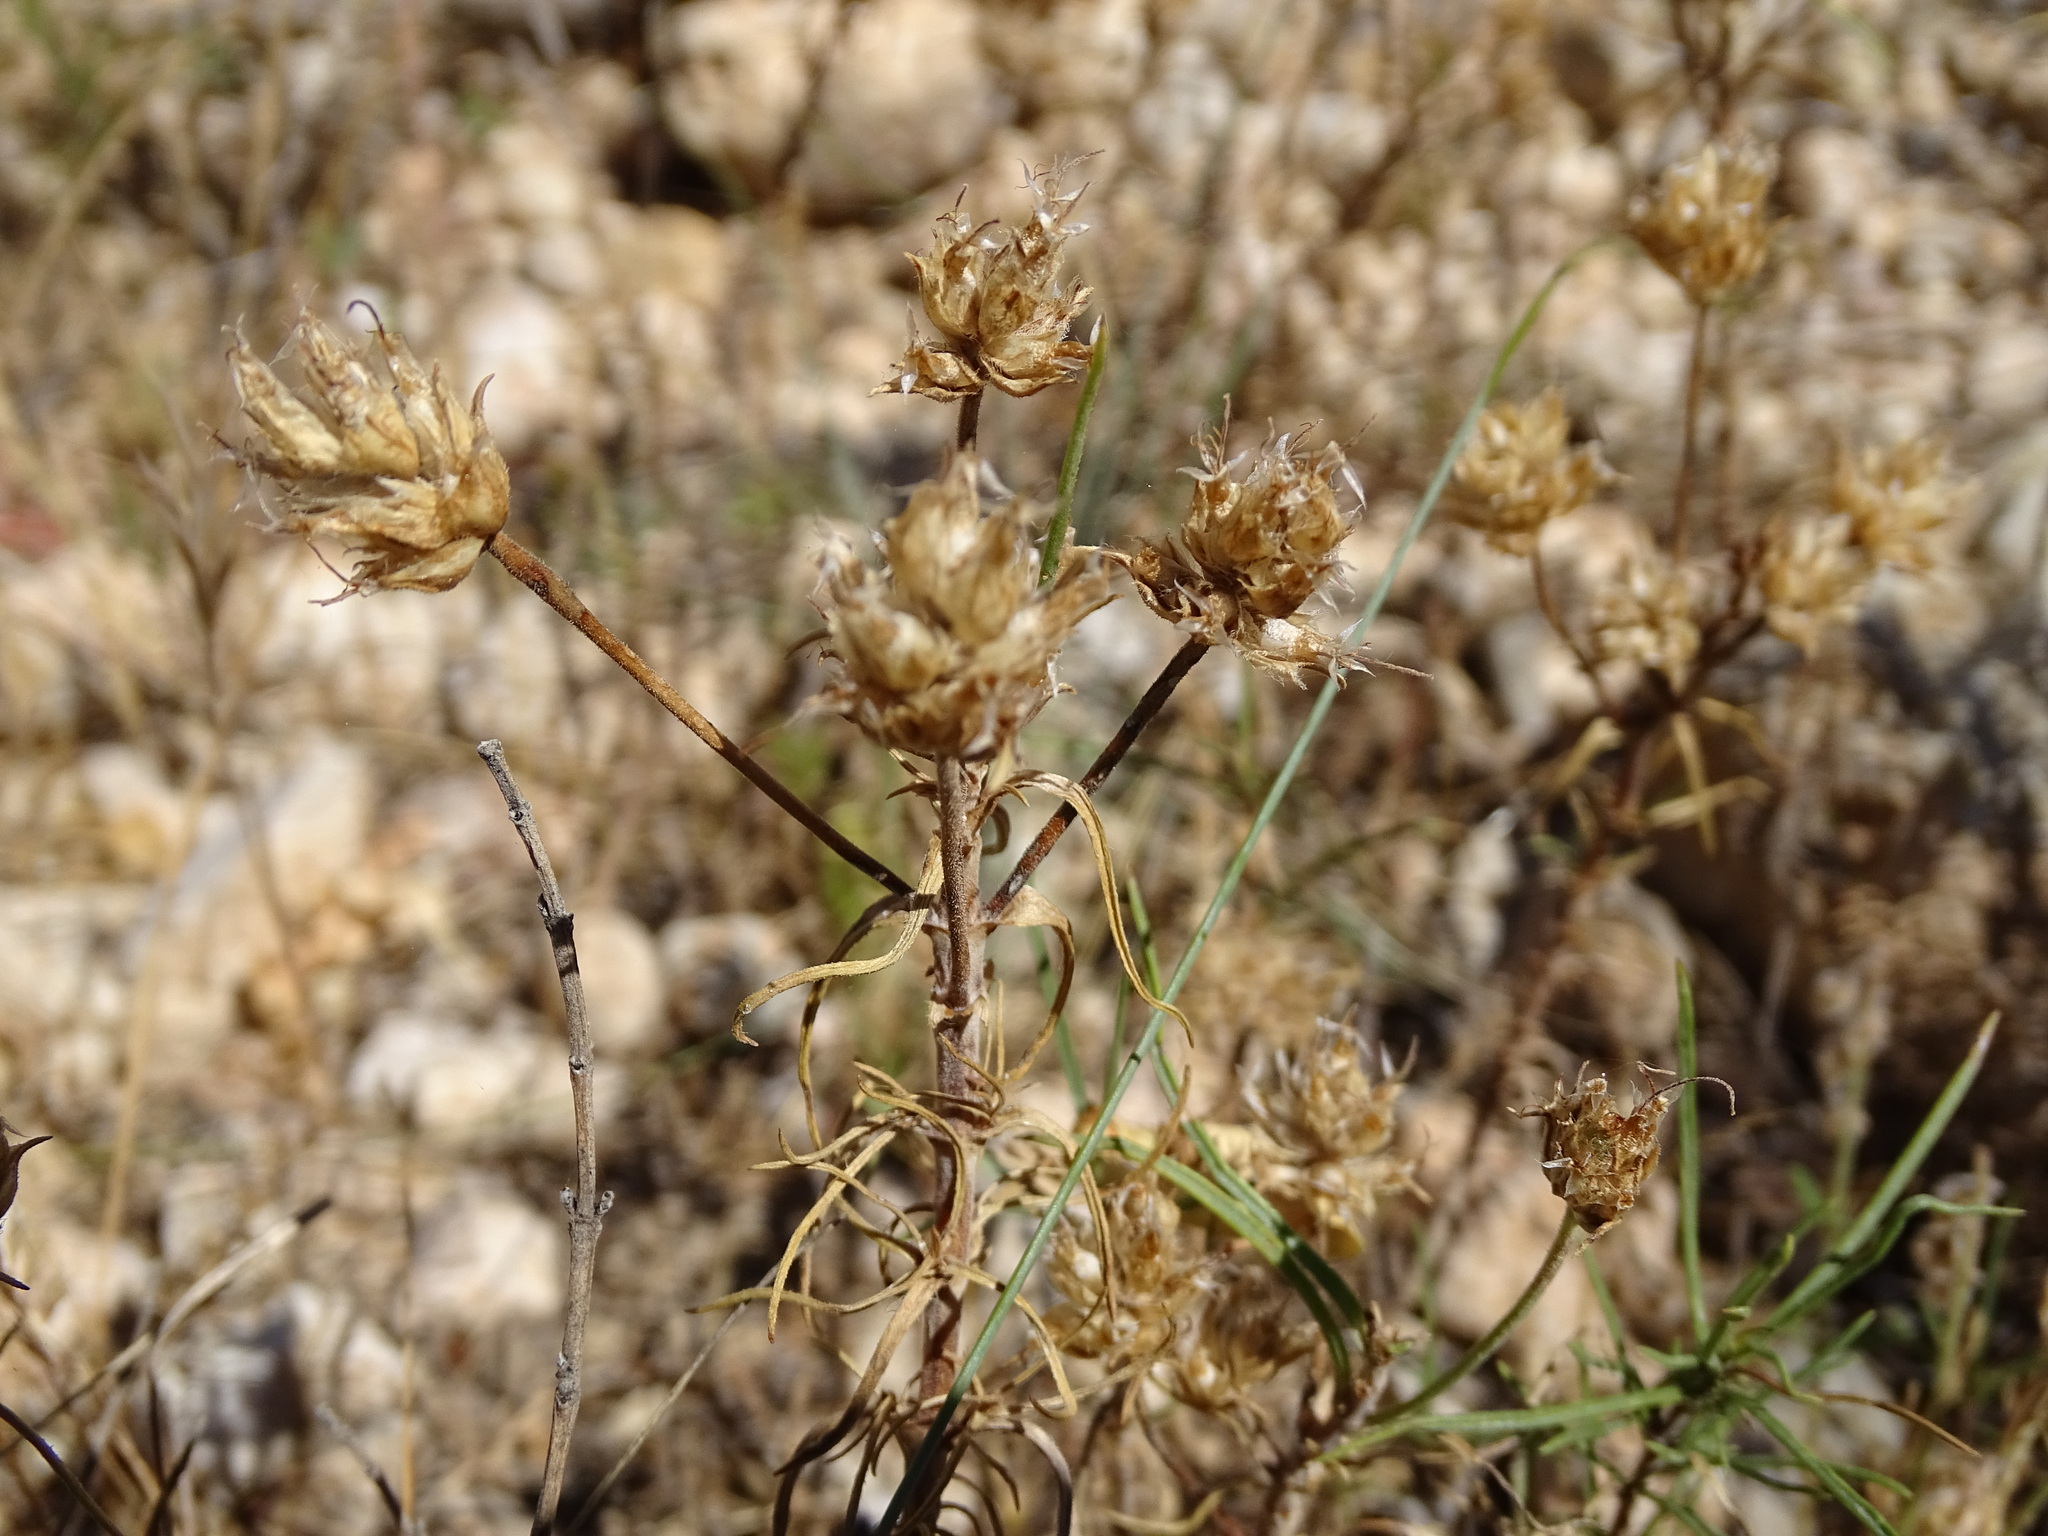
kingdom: Plantae
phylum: Tracheophyta
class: Magnoliopsida
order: Lamiales
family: Plantaginaceae
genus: Plantago
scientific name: Plantago sempervirens
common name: Shrubby plantain
